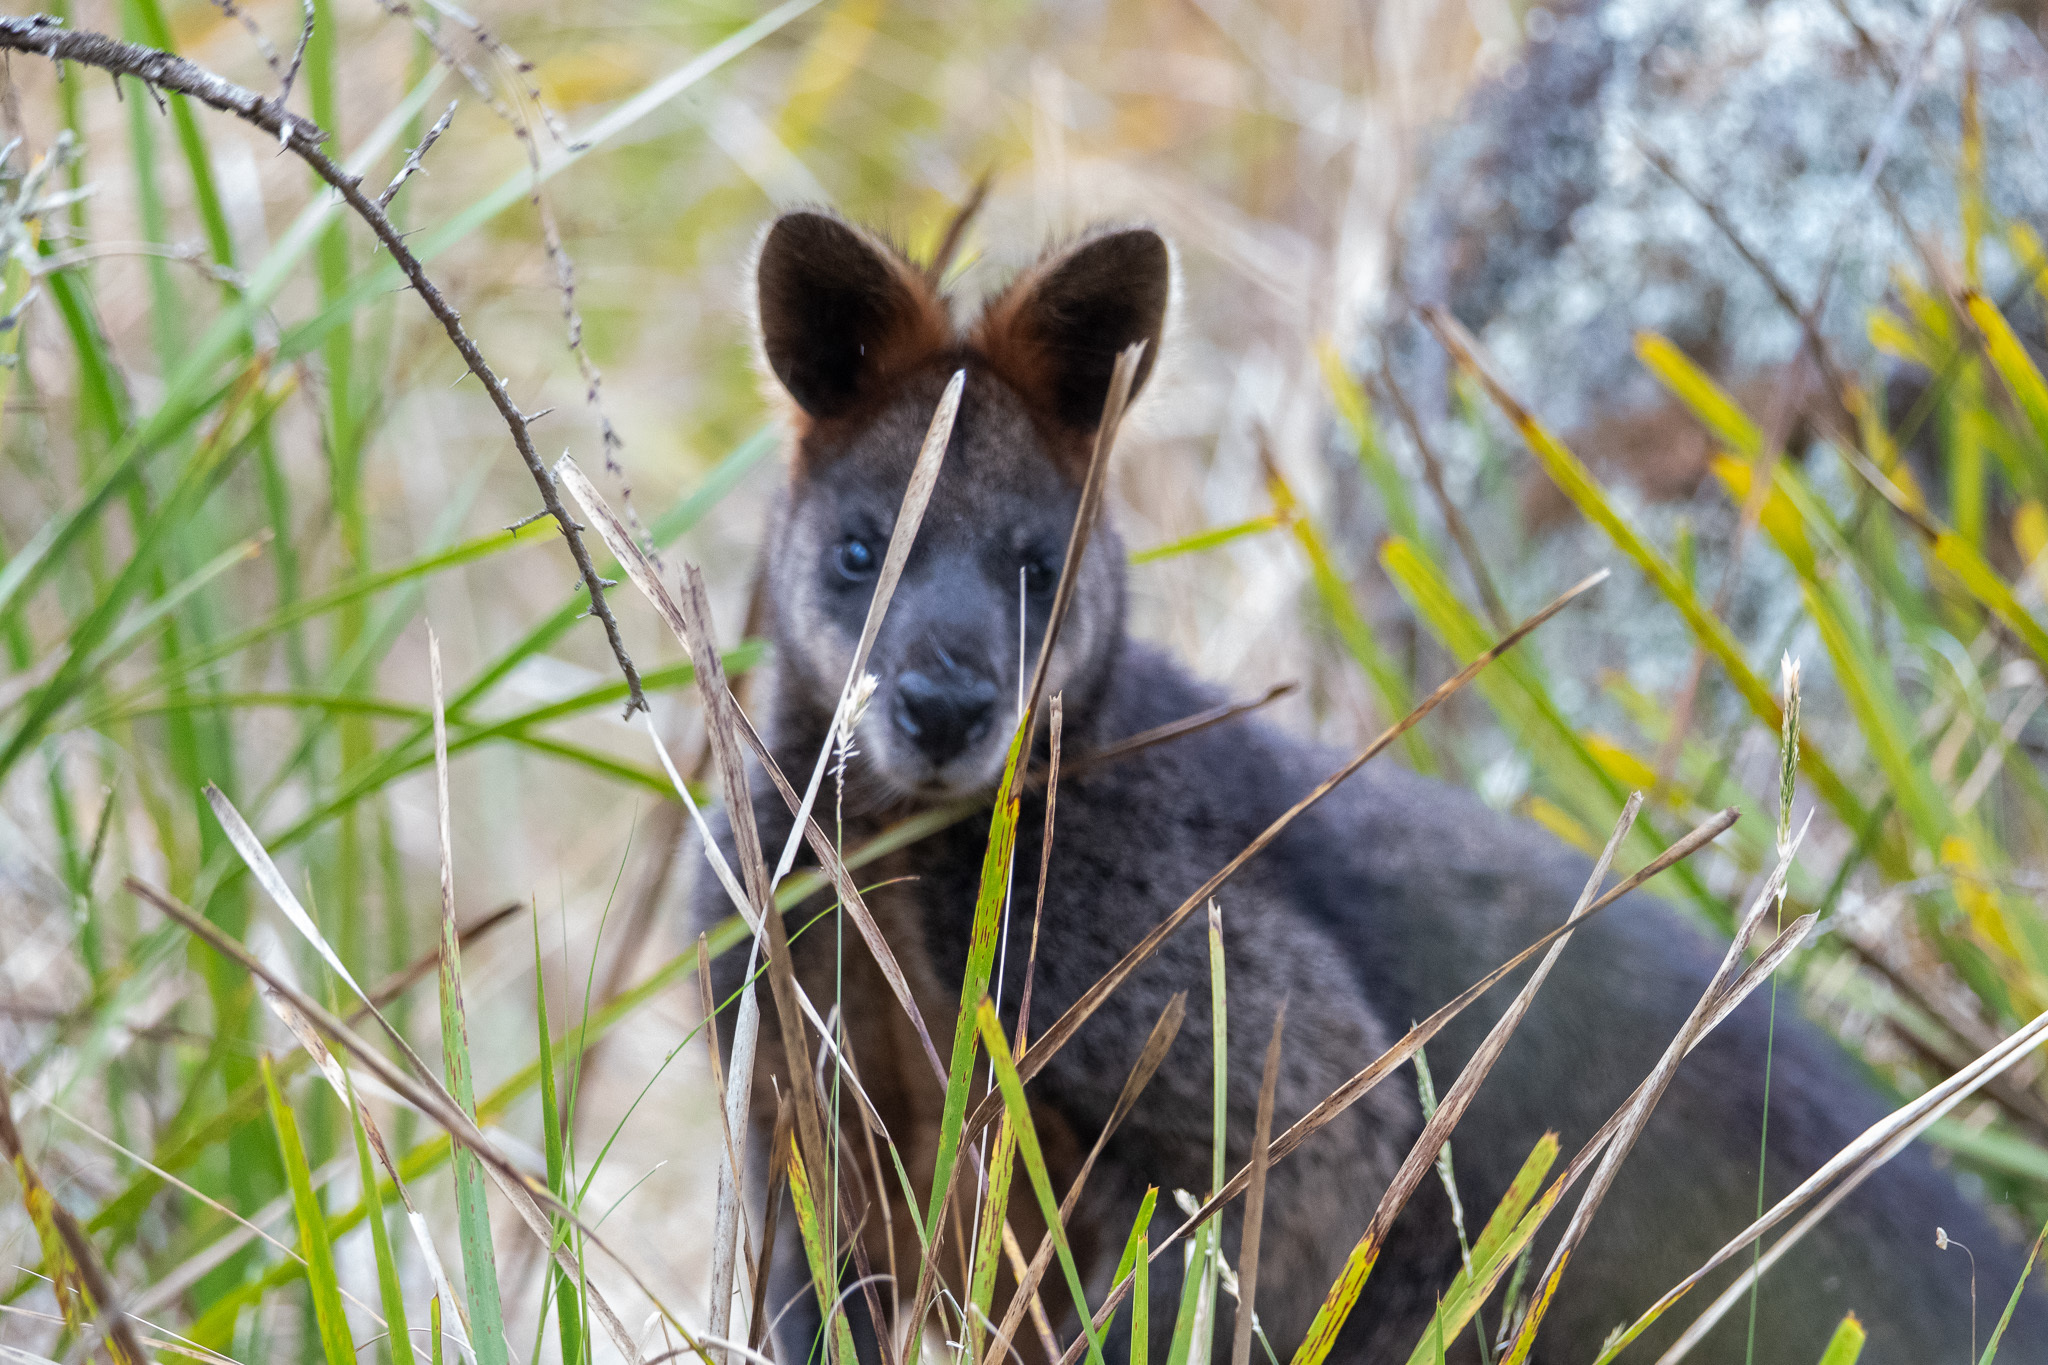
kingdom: Animalia
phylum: Chordata
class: Mammalia
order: Diprotodontia
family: Macropodidae
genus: Wallabia
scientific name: Wallabia bicolor
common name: Swamp wallaby
